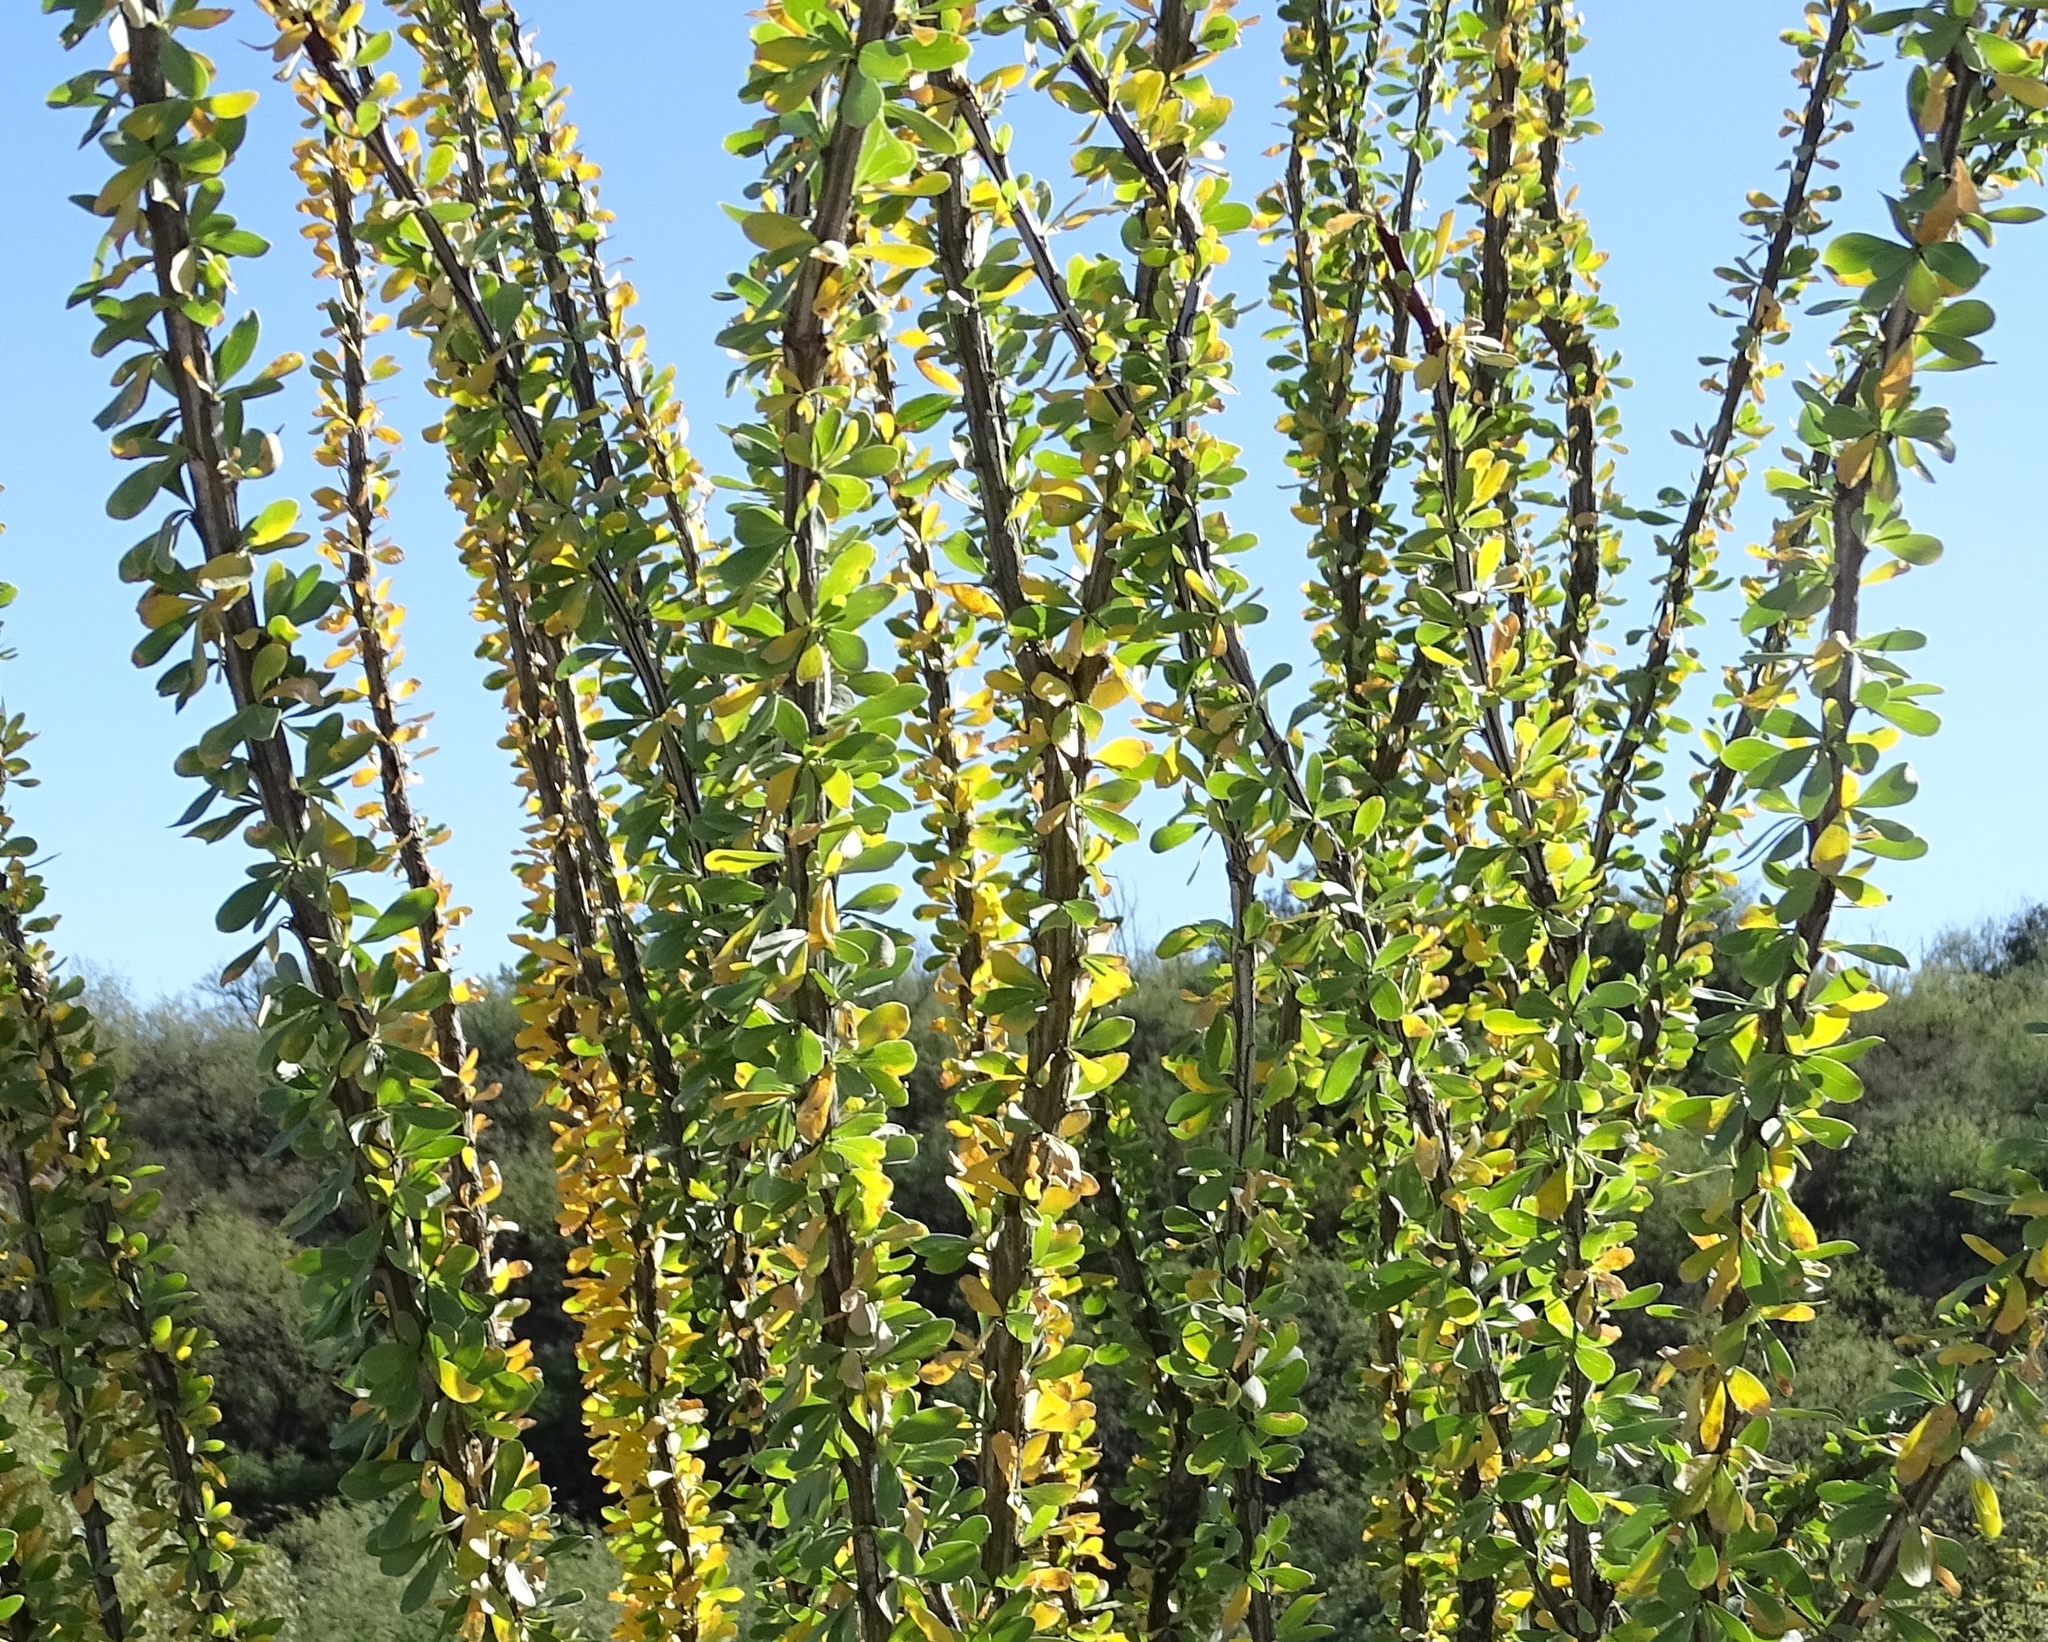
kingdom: Plantae
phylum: Tracheophyta
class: Magnoliopsida
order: Ericales
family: Fouquieriaceae
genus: Fouquieria
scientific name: Fouquieria splendens
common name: Vine-cactus
